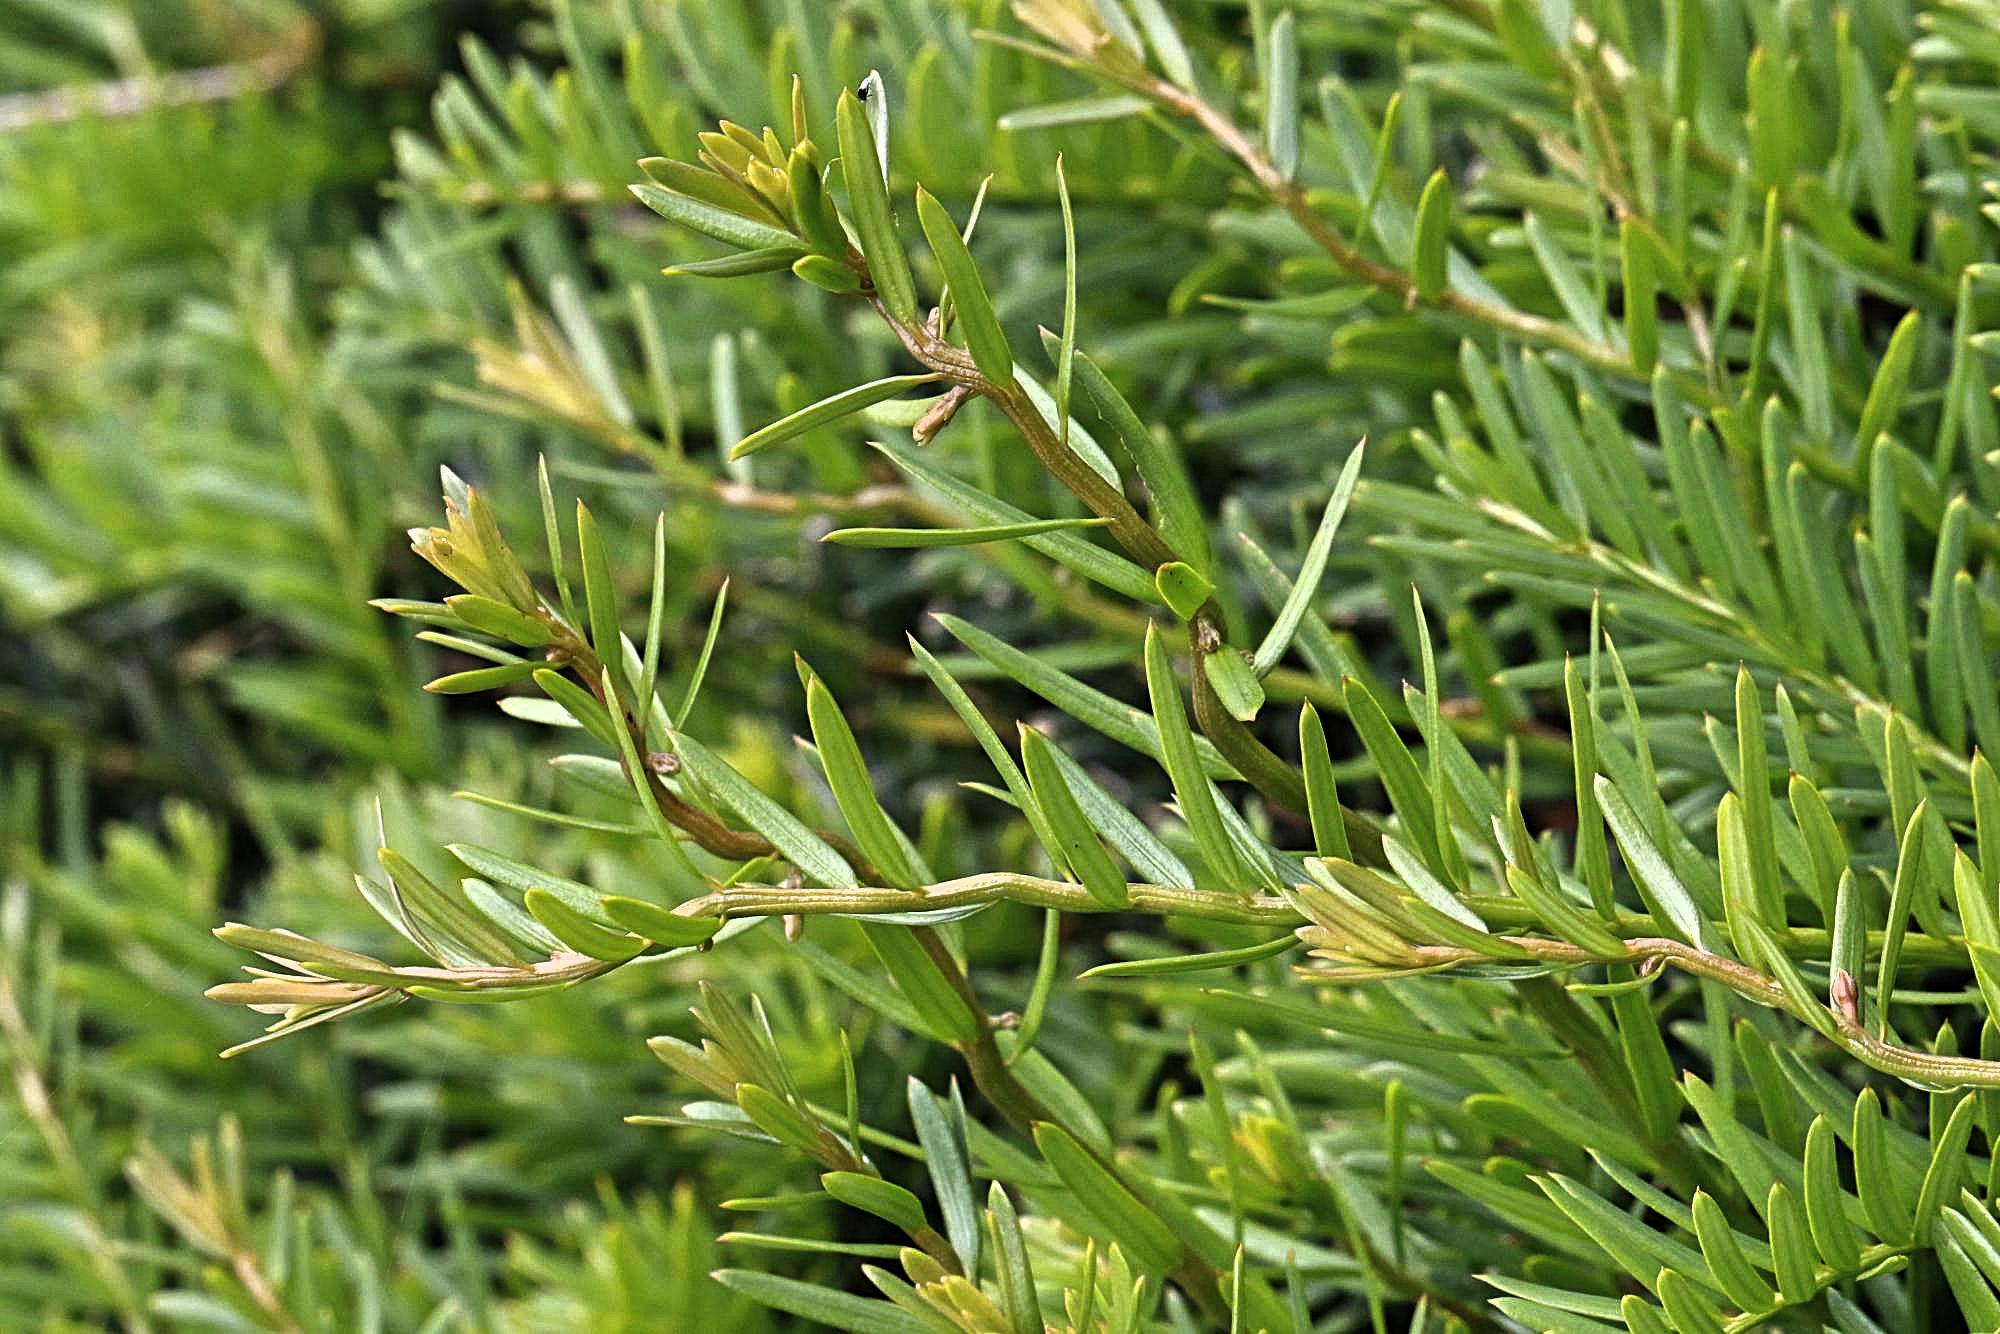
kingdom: Plantae
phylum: Tracheophyta
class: Pinopsida
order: Pinales
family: Taxaceae
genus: Taxus
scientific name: Taxus baccata
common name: Yew
